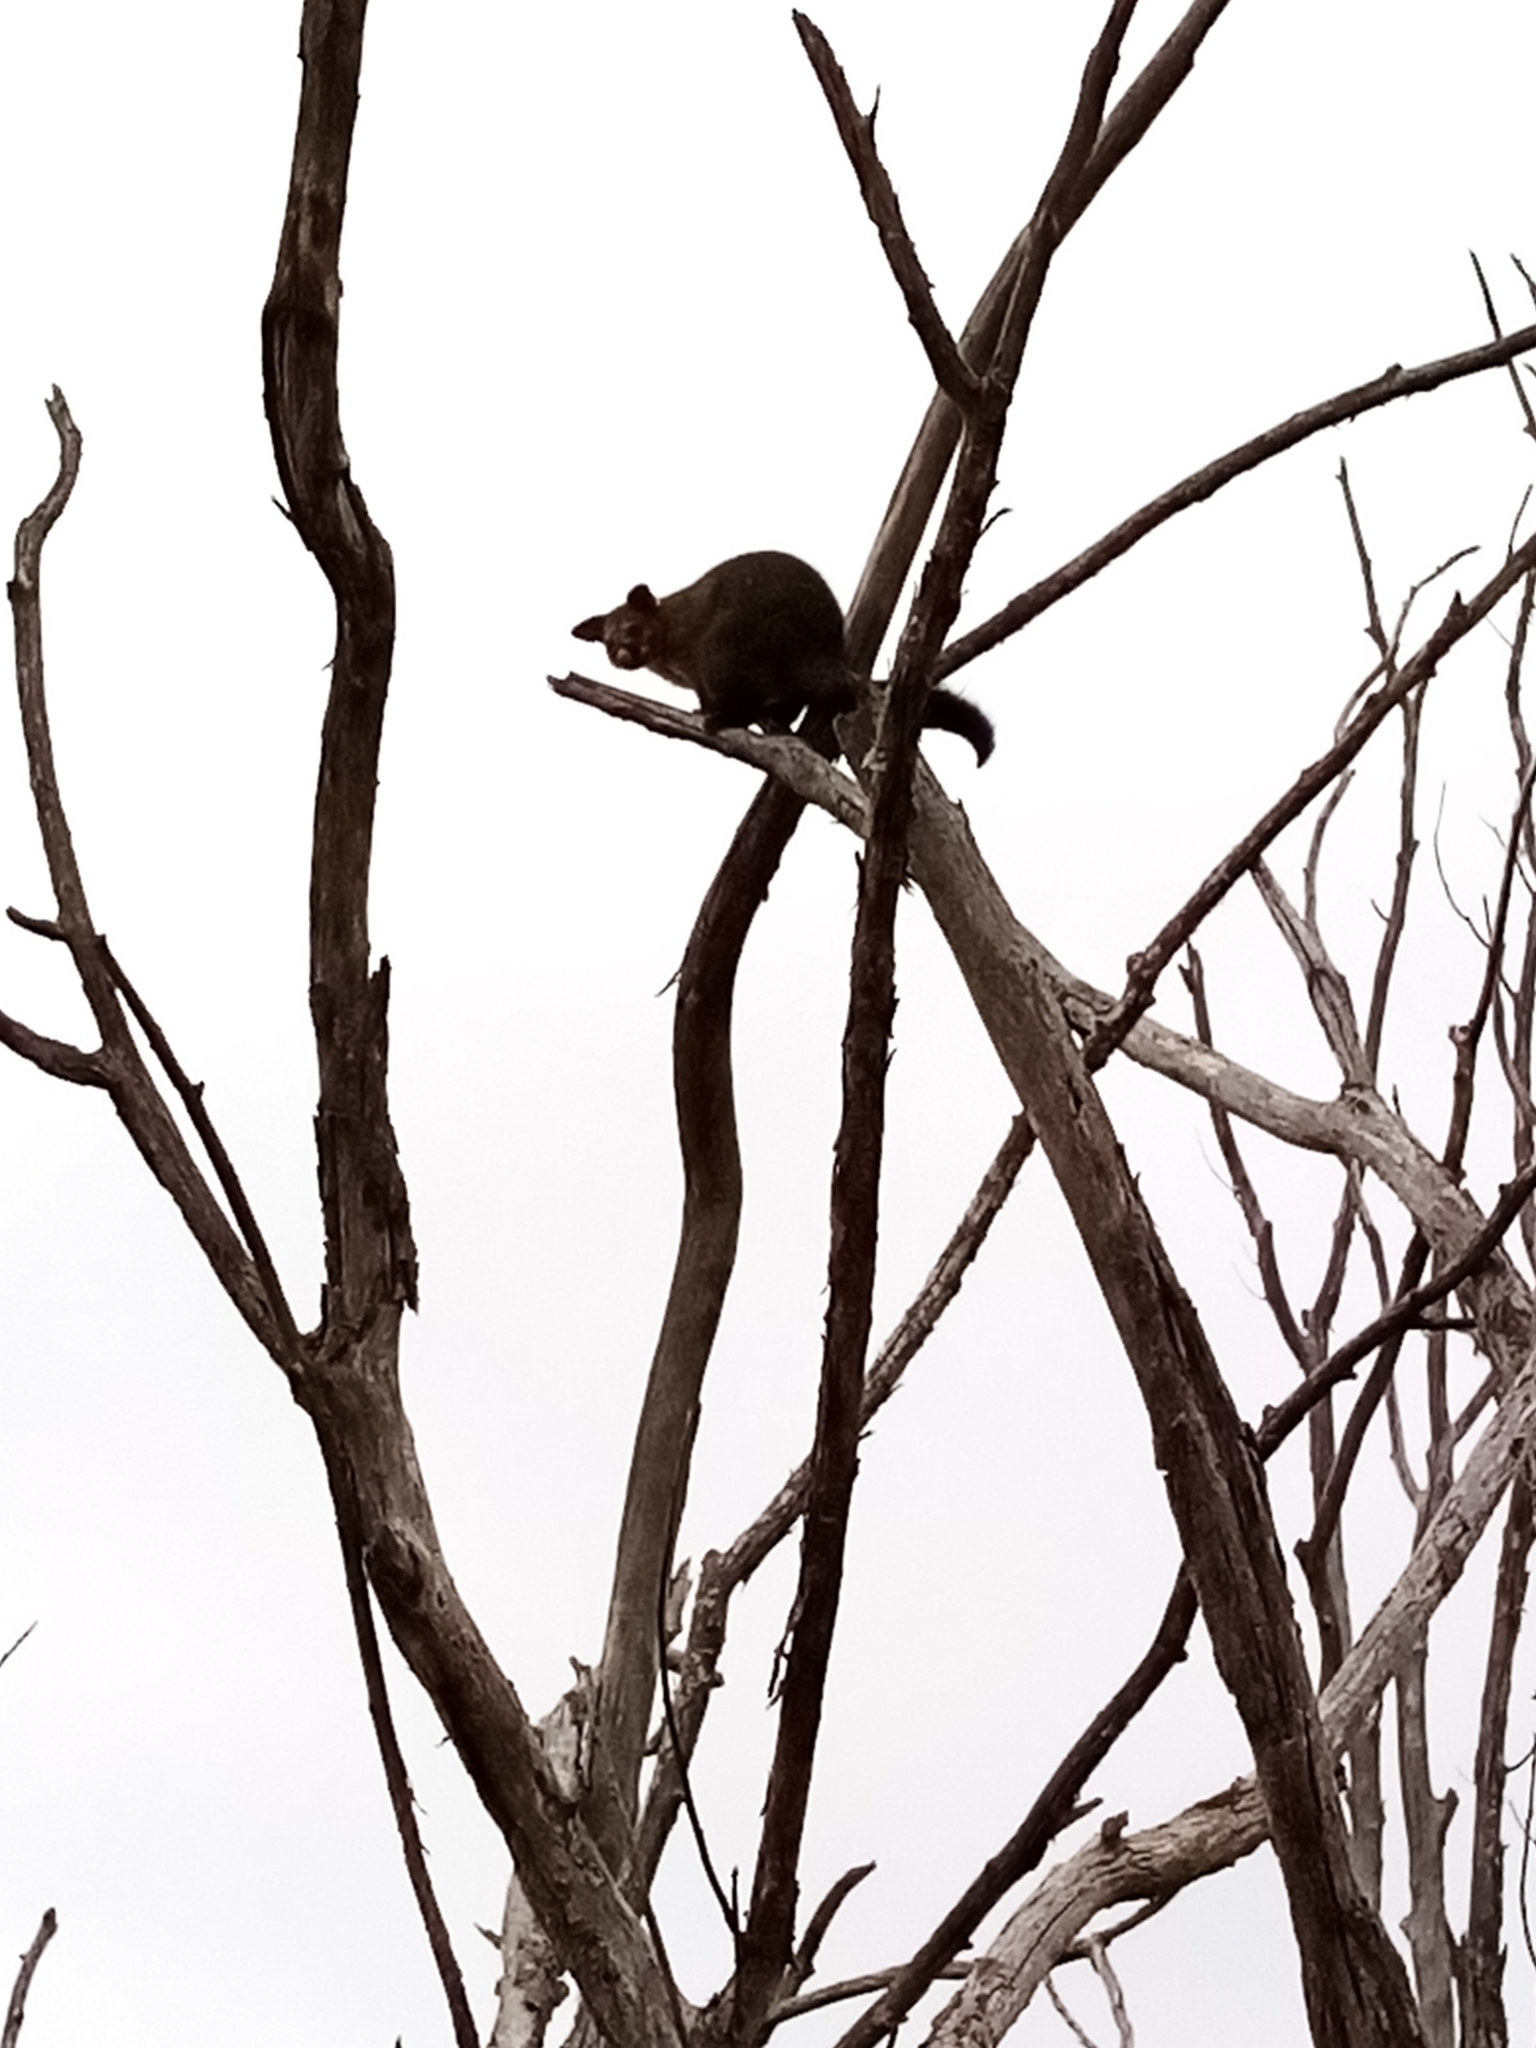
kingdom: Animalia
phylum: Chordata
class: Mammalia
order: Diprotodontia
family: Phalangeridae
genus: Trichosurus
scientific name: Trichosurus vulpecula
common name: Common brushtail
